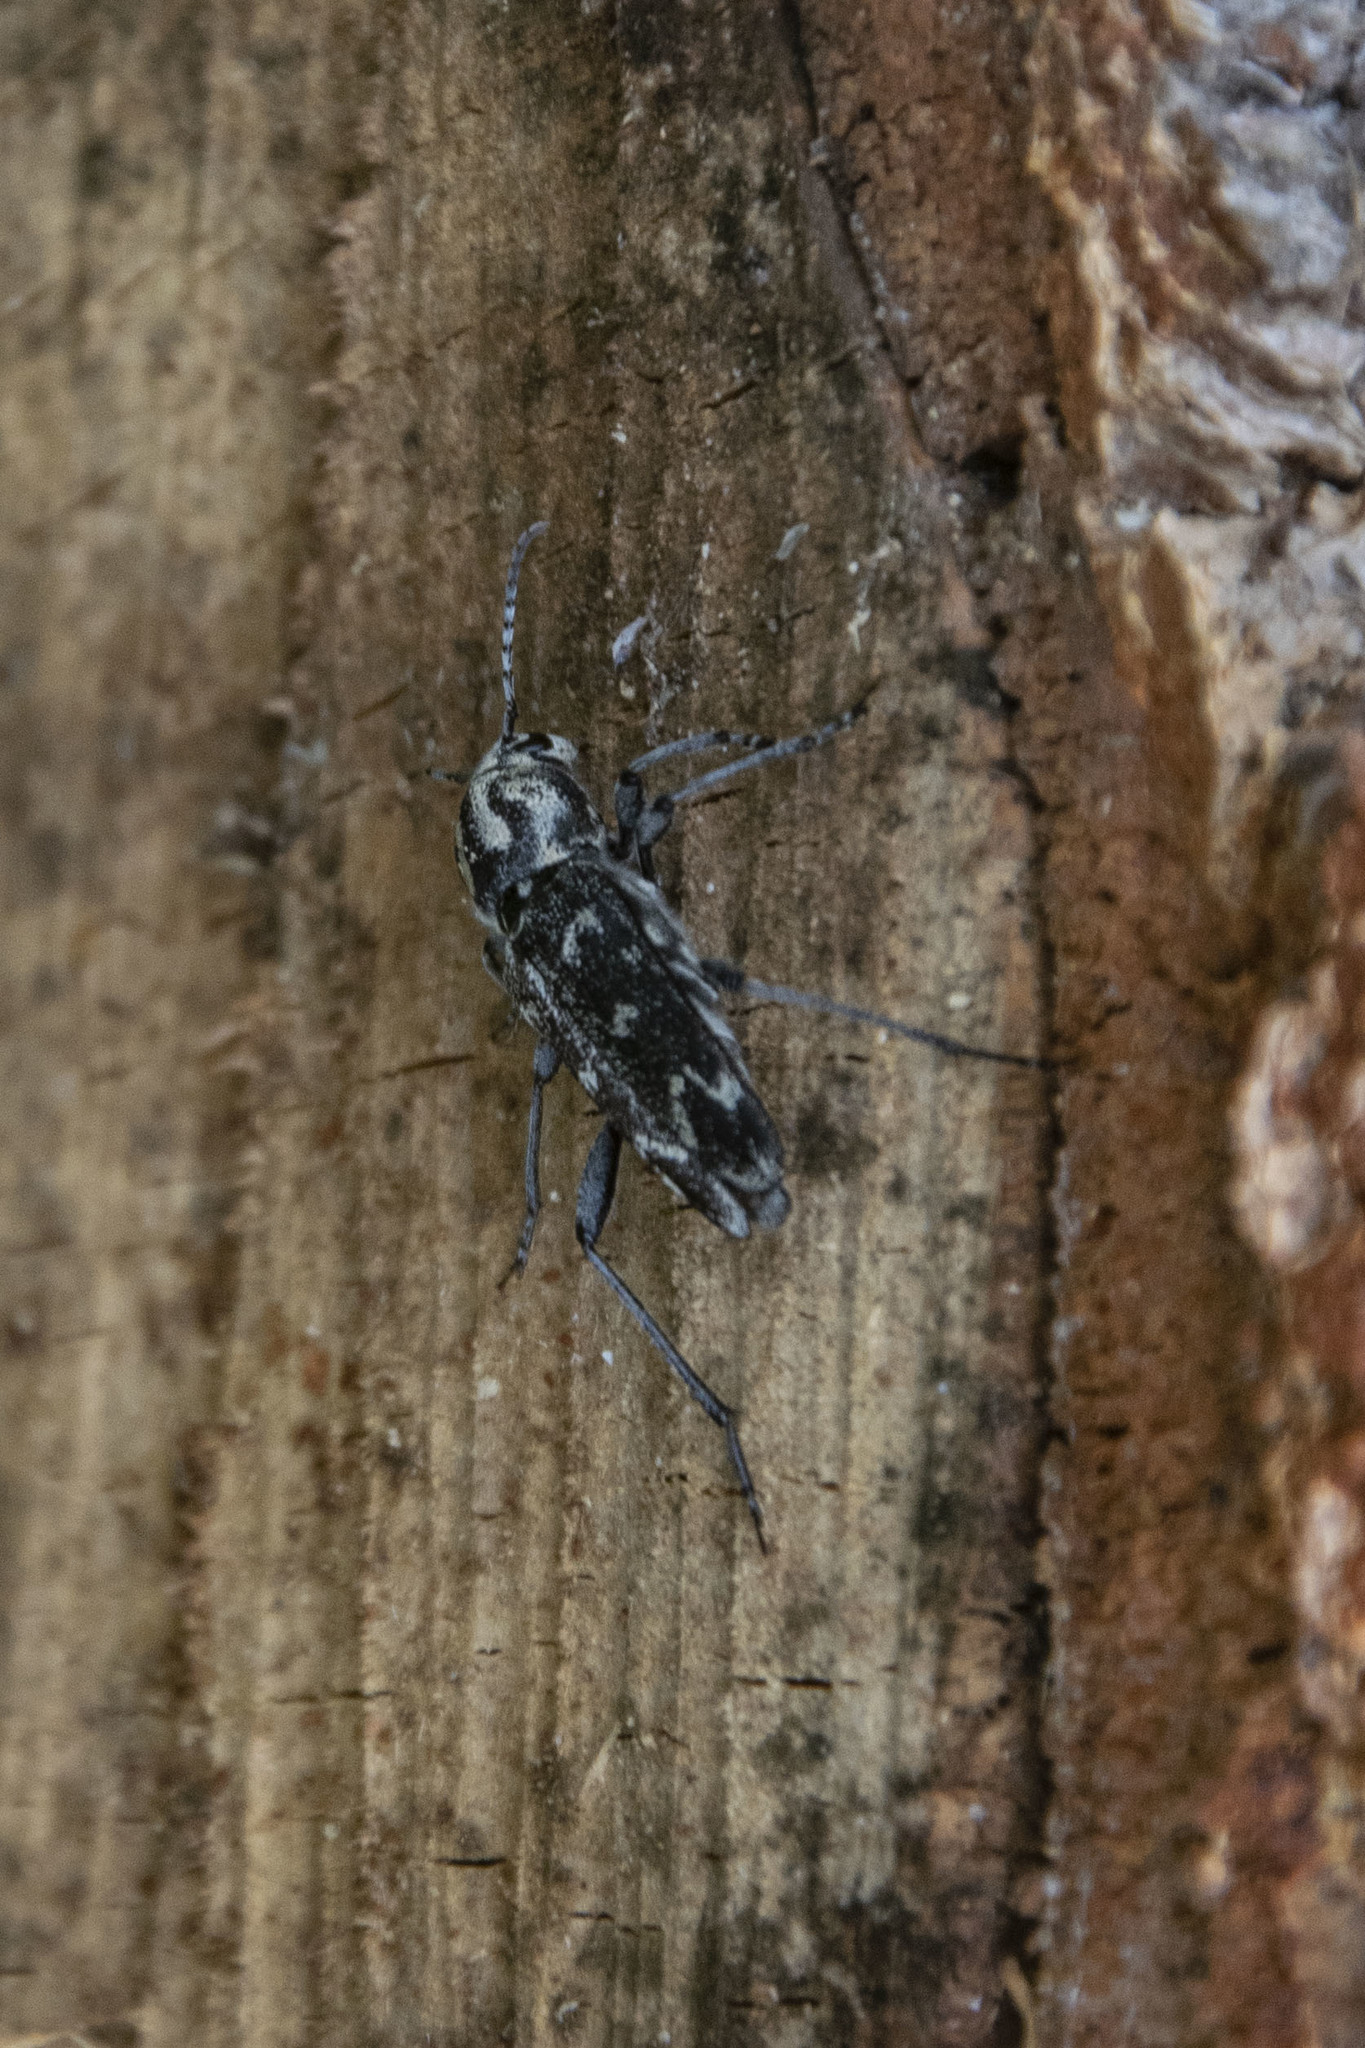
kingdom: Animalia
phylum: Arthropoda
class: Insecta
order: Coleoptera
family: Cerambycidae
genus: Xylotrechus
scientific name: Xylotrechus rusticus
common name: Grey tiger long-horned beetle
